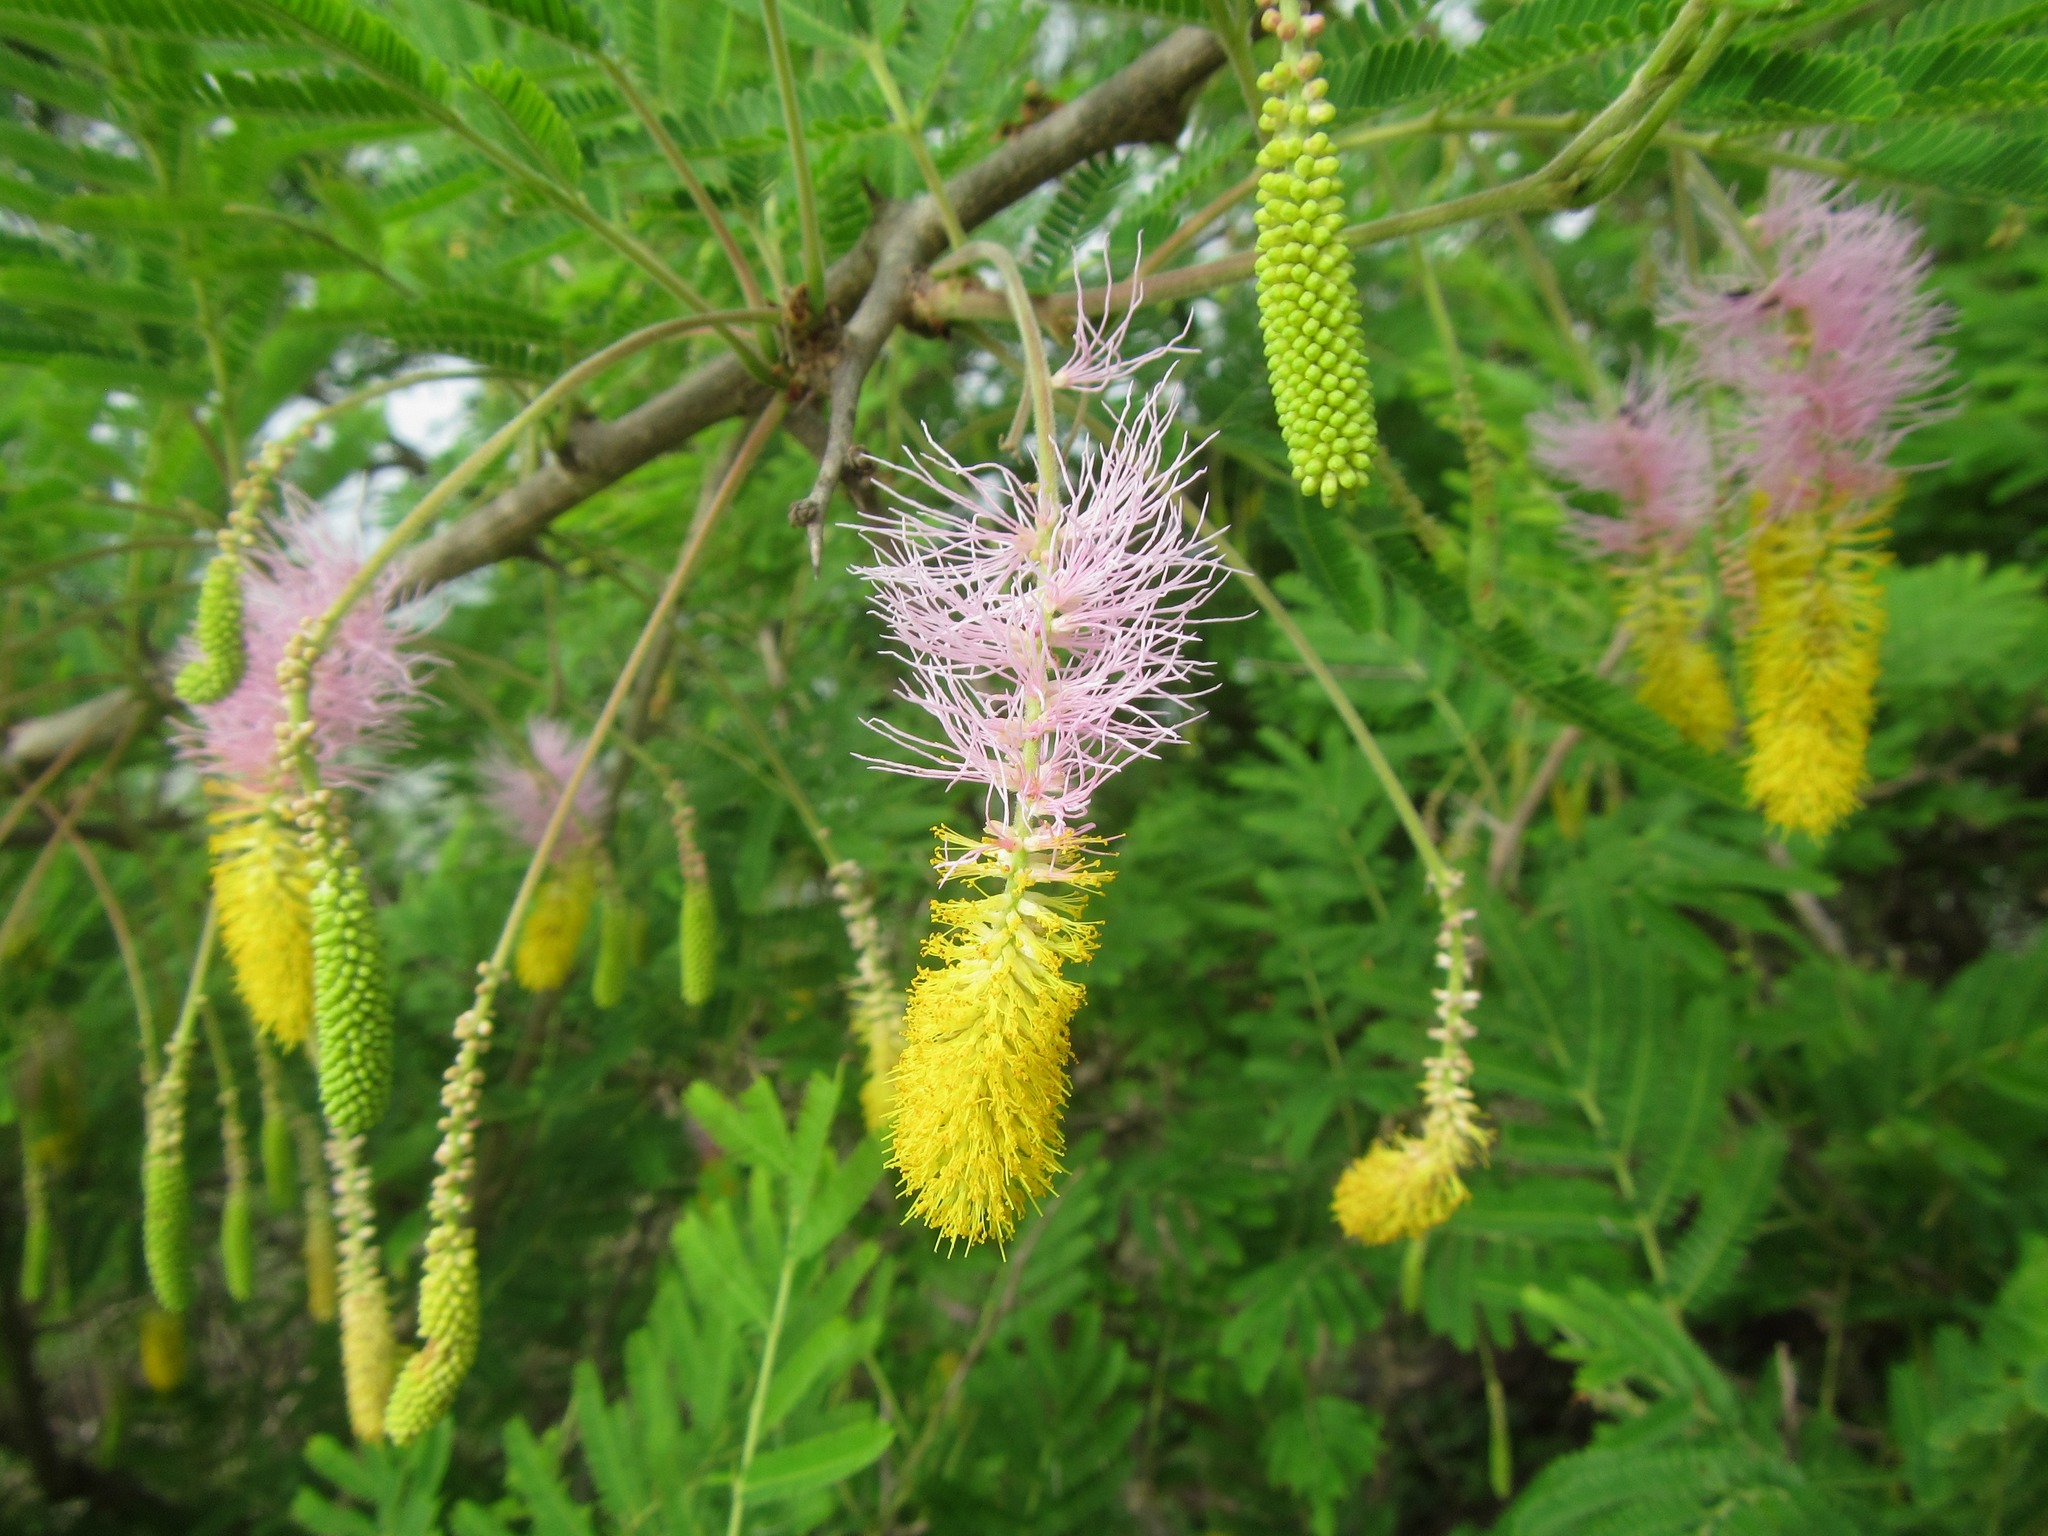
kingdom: Plantae
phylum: Tracheophyta
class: Magnoliopsida
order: Fabales
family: Fabaceae
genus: Dichrostachys
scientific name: Dichrostachys cinerea
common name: Sicklebush
